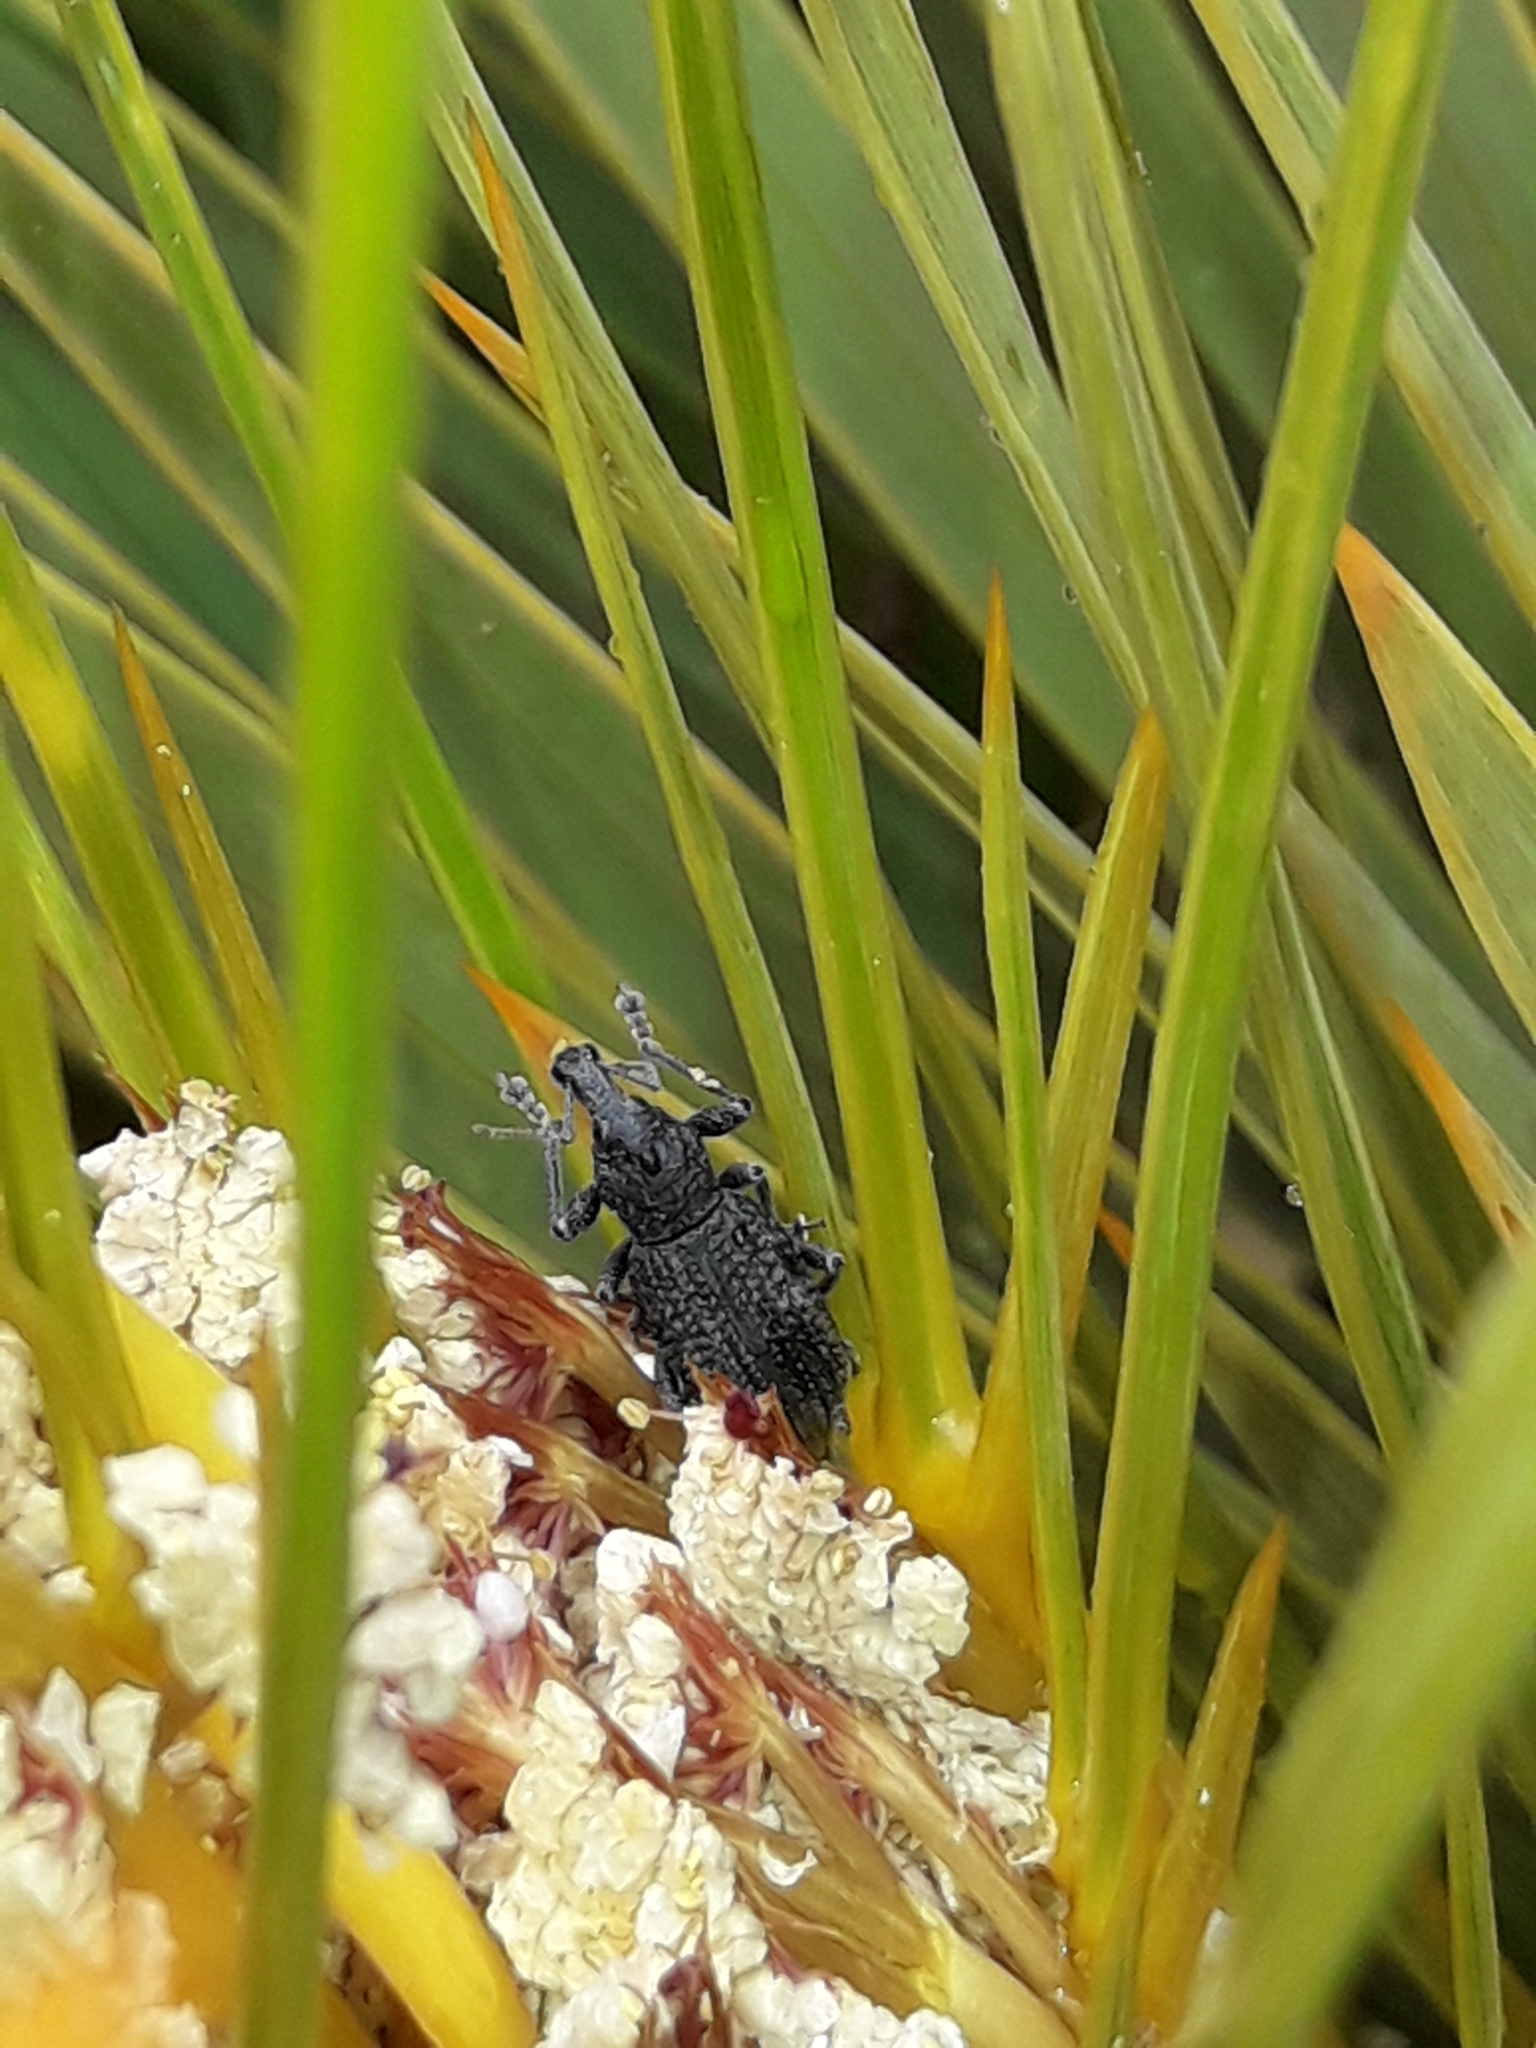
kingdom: Animalia
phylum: Arthropoda
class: Insecta
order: Coleoptera
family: Curculionidae
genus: Inophloeus
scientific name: Inophloeus inuus
